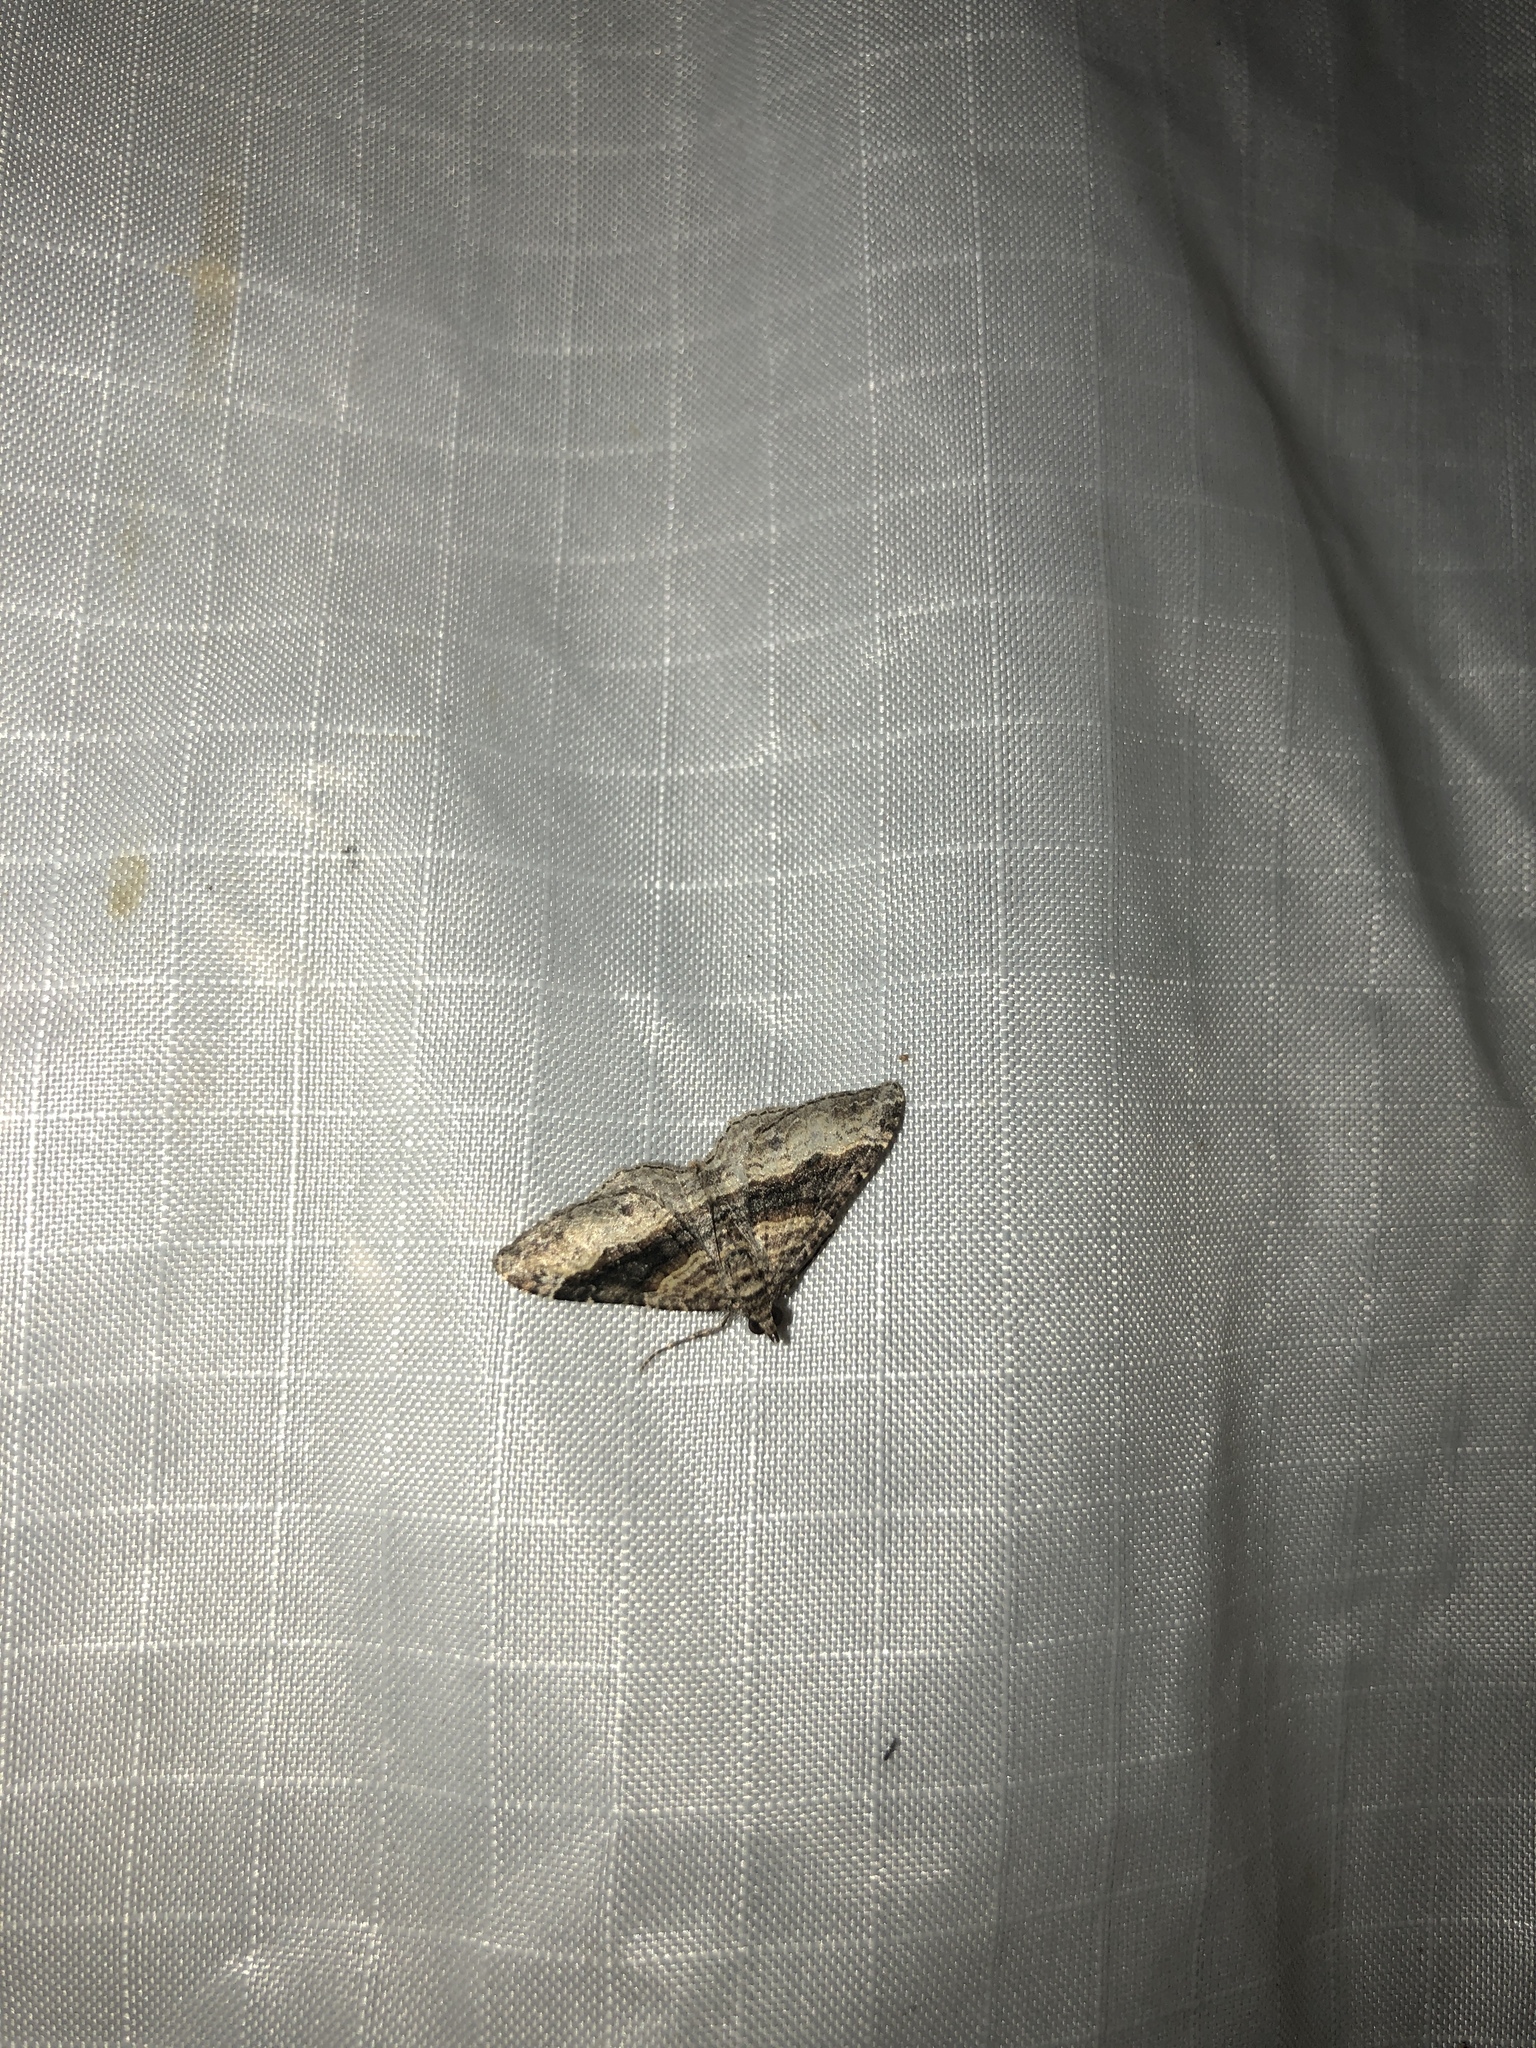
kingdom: Animalia
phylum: Arthropoda
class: Insecta
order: Lepidoptera
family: Geometridae
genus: Epyaxa
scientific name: Epyaxa lucidata
